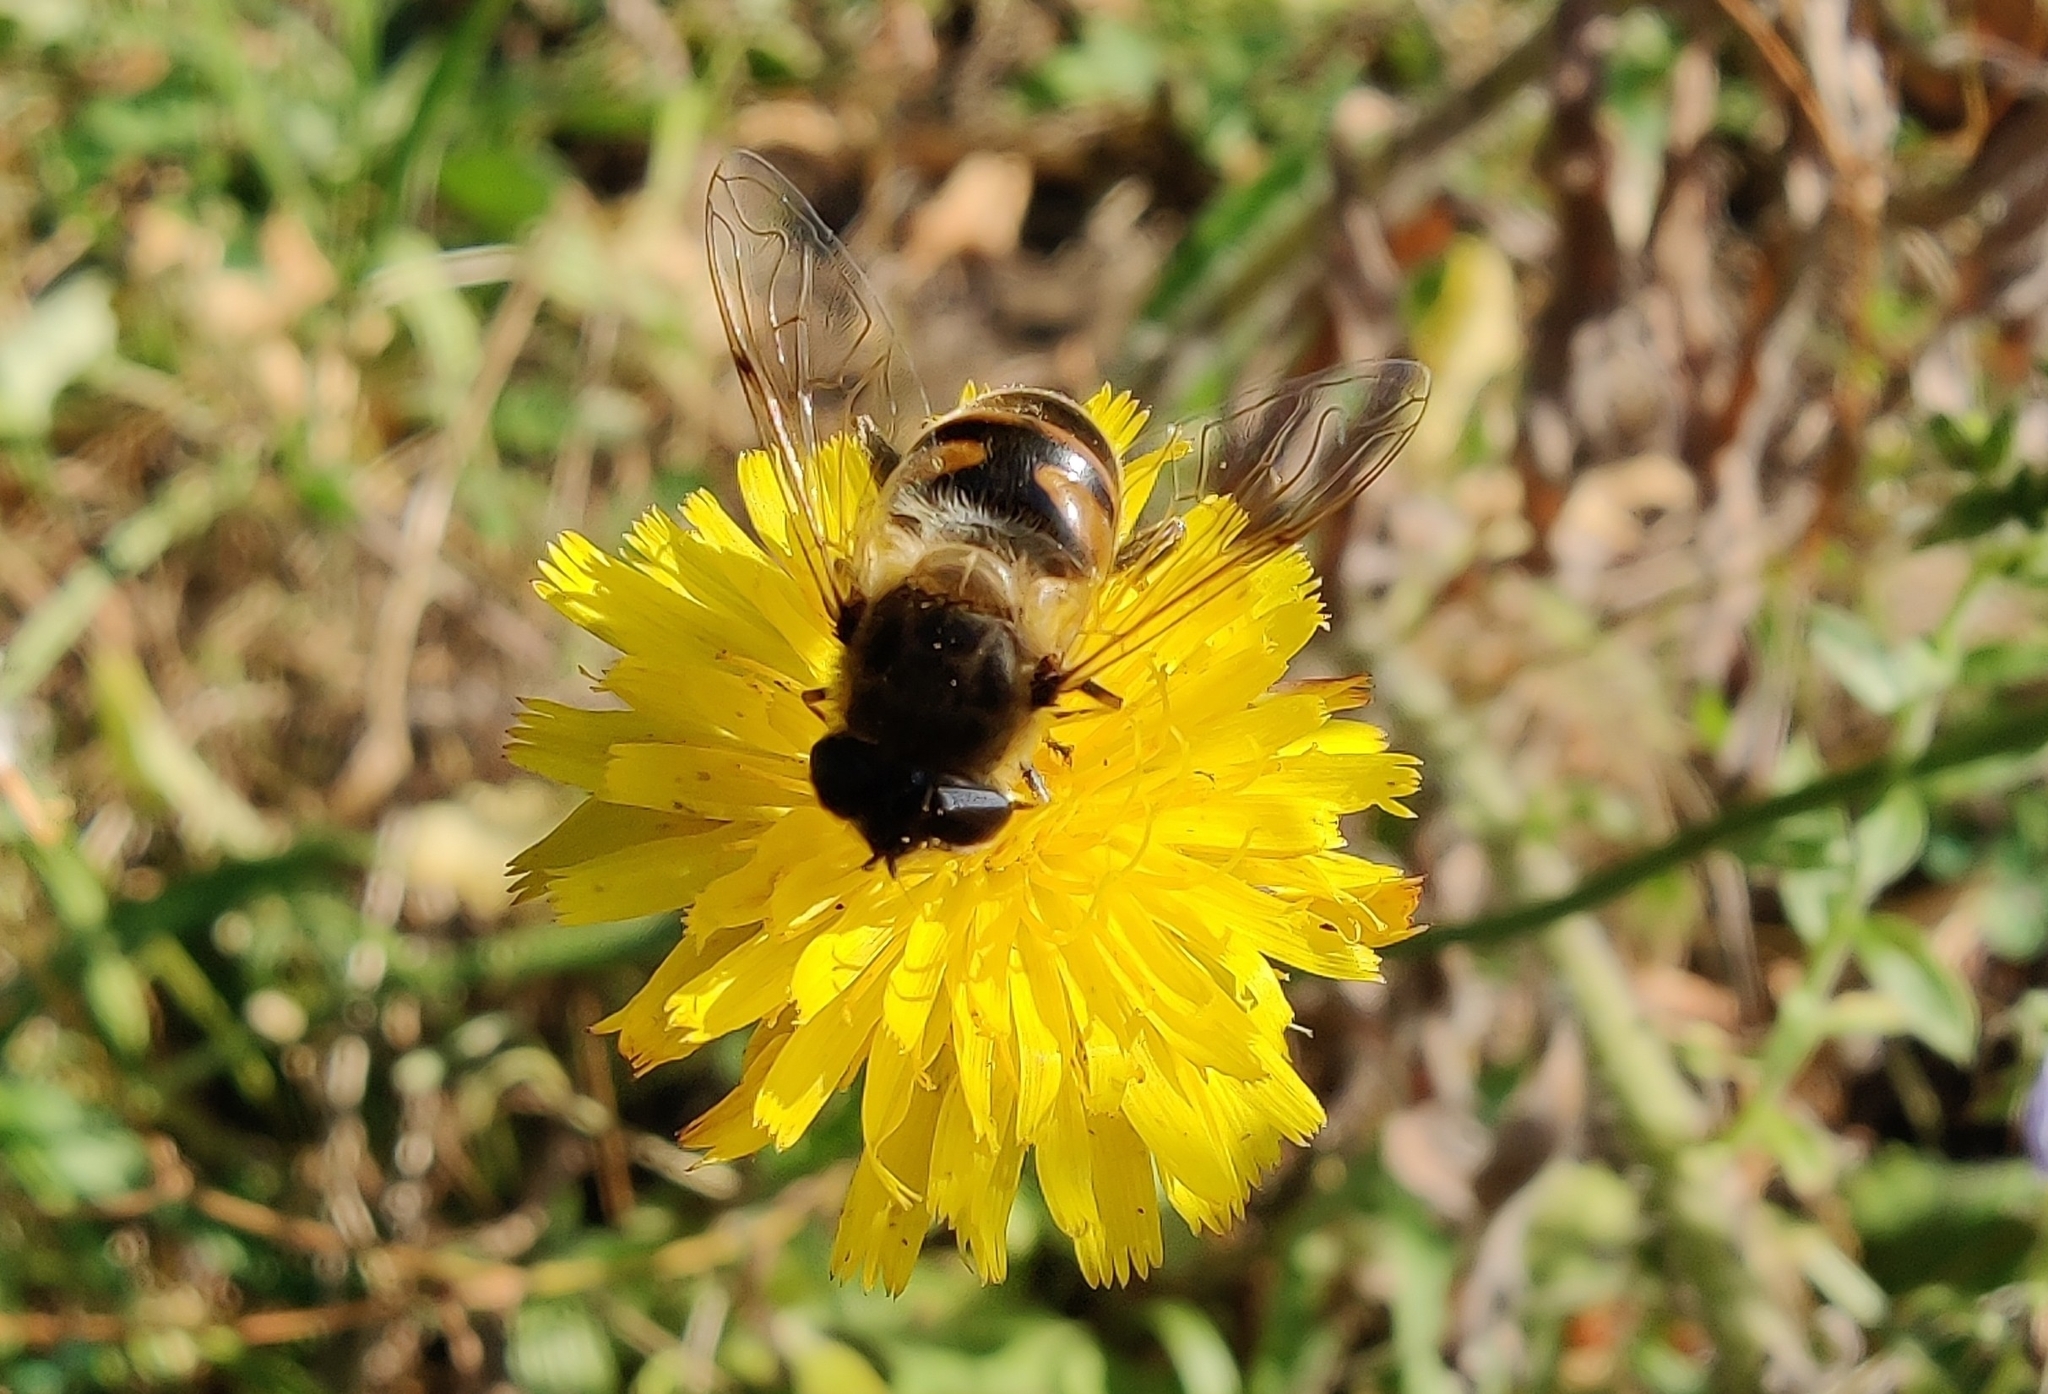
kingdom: Animalia
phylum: Arthropoda
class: Insecta
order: Diptera
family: Syrphidae
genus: Eristalis
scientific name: Eristalis tenax
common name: Drone fly
